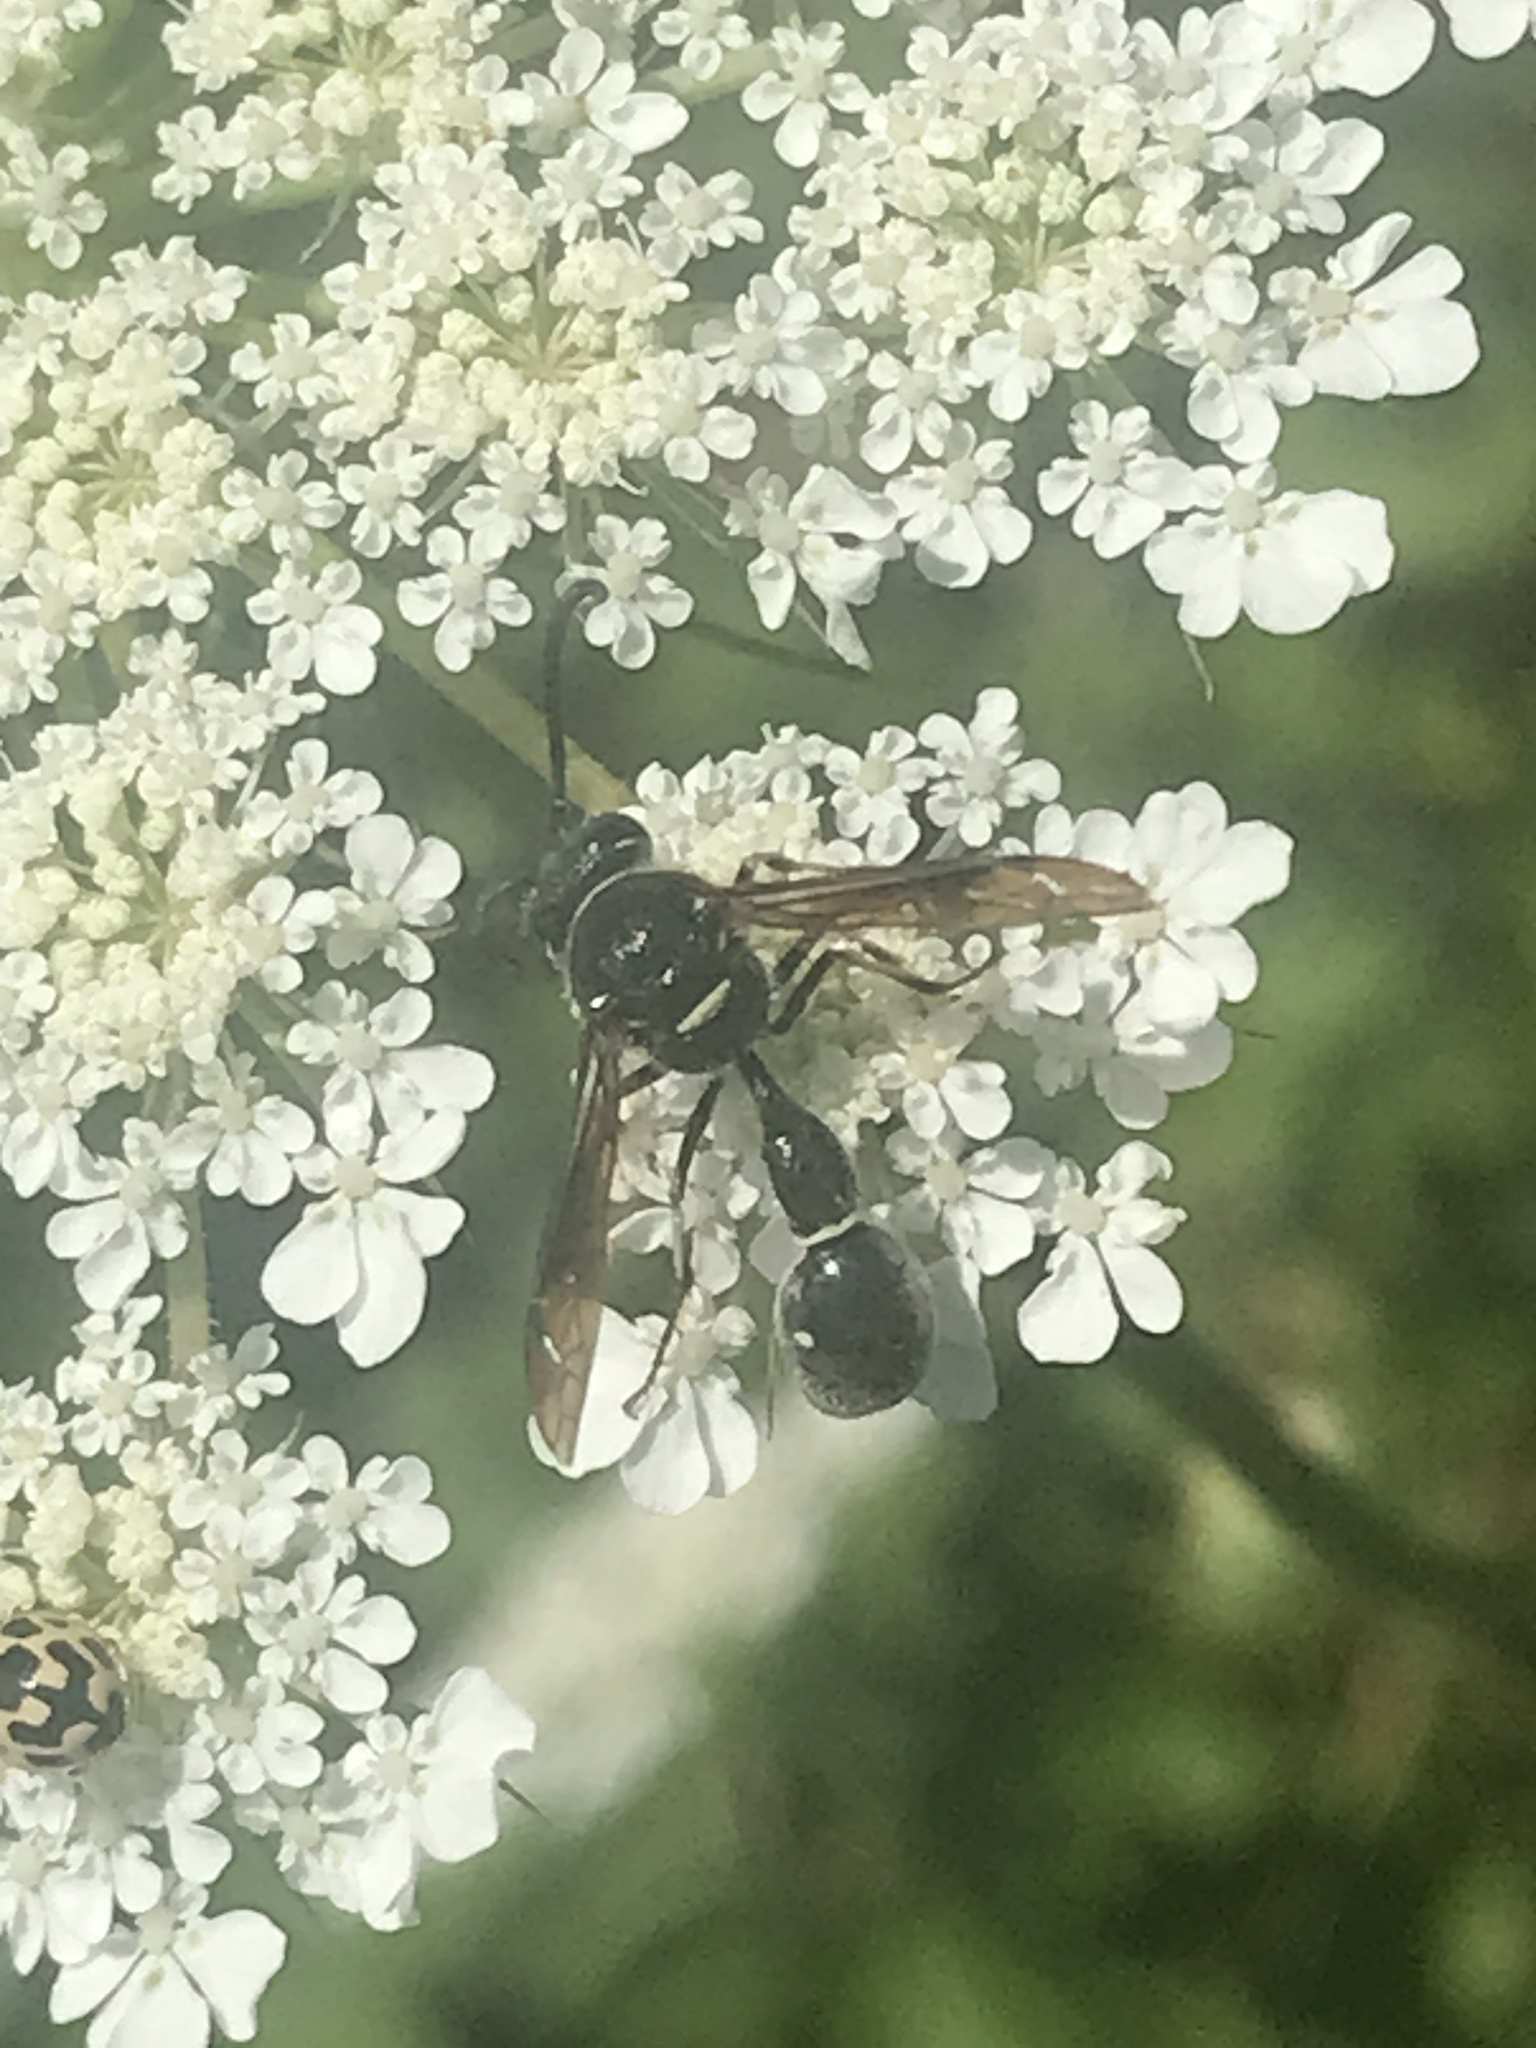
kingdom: Animalia
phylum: Arthropoda
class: Insecta
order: Hymenoptera
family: Vespidae
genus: Eumenes
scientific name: Eumenes fraternus
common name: Fraternal potter wasp
